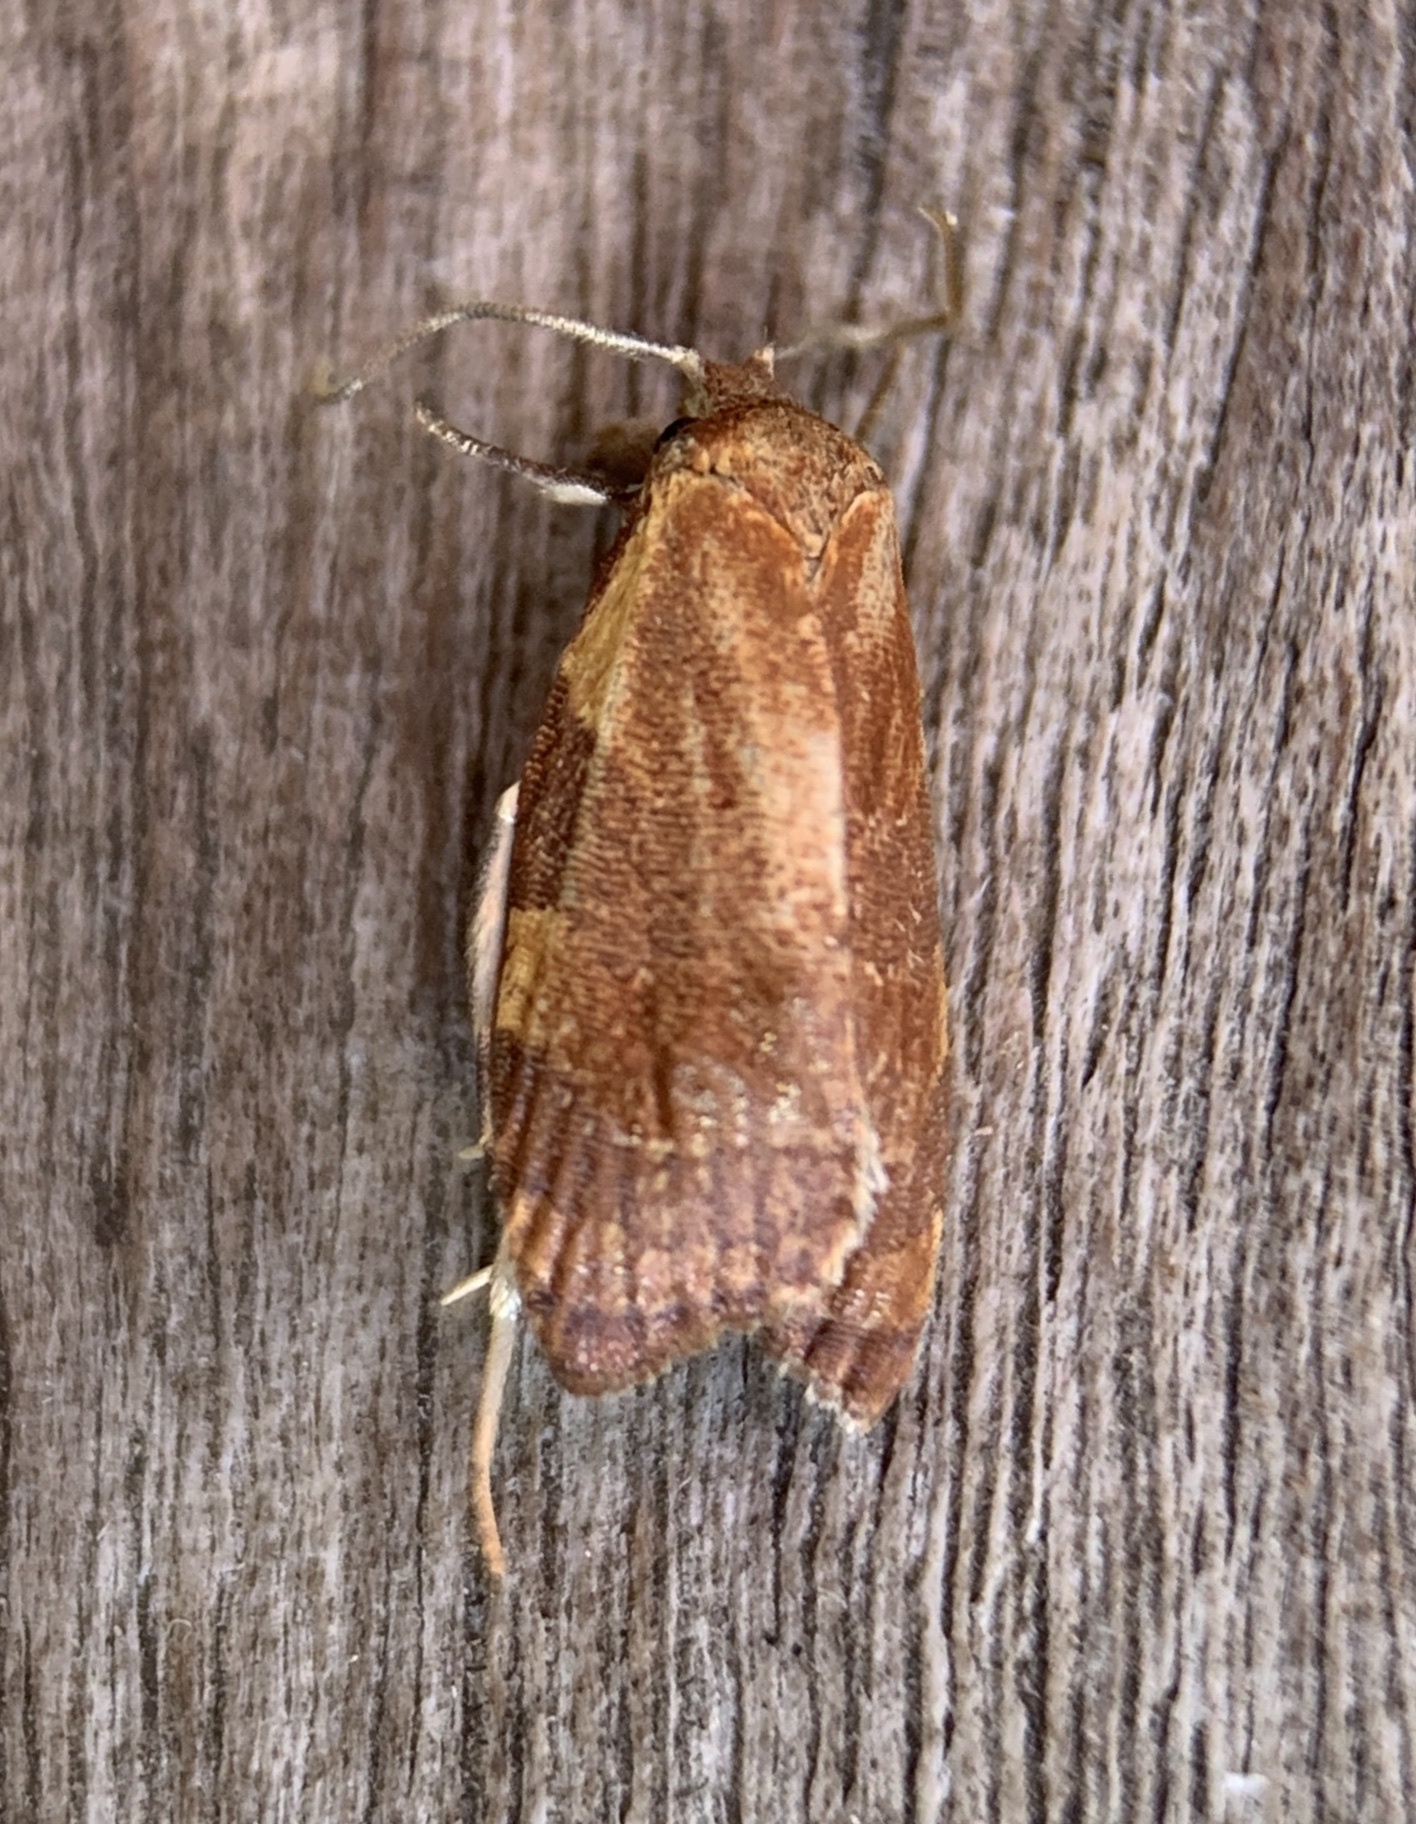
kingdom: Animalia
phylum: Arthropoda
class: Insecta
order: Lepidoptera
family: Tortricidae
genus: Cenopis
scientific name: Cenopis diluticostana
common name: Spring dead-leaf roller moth
